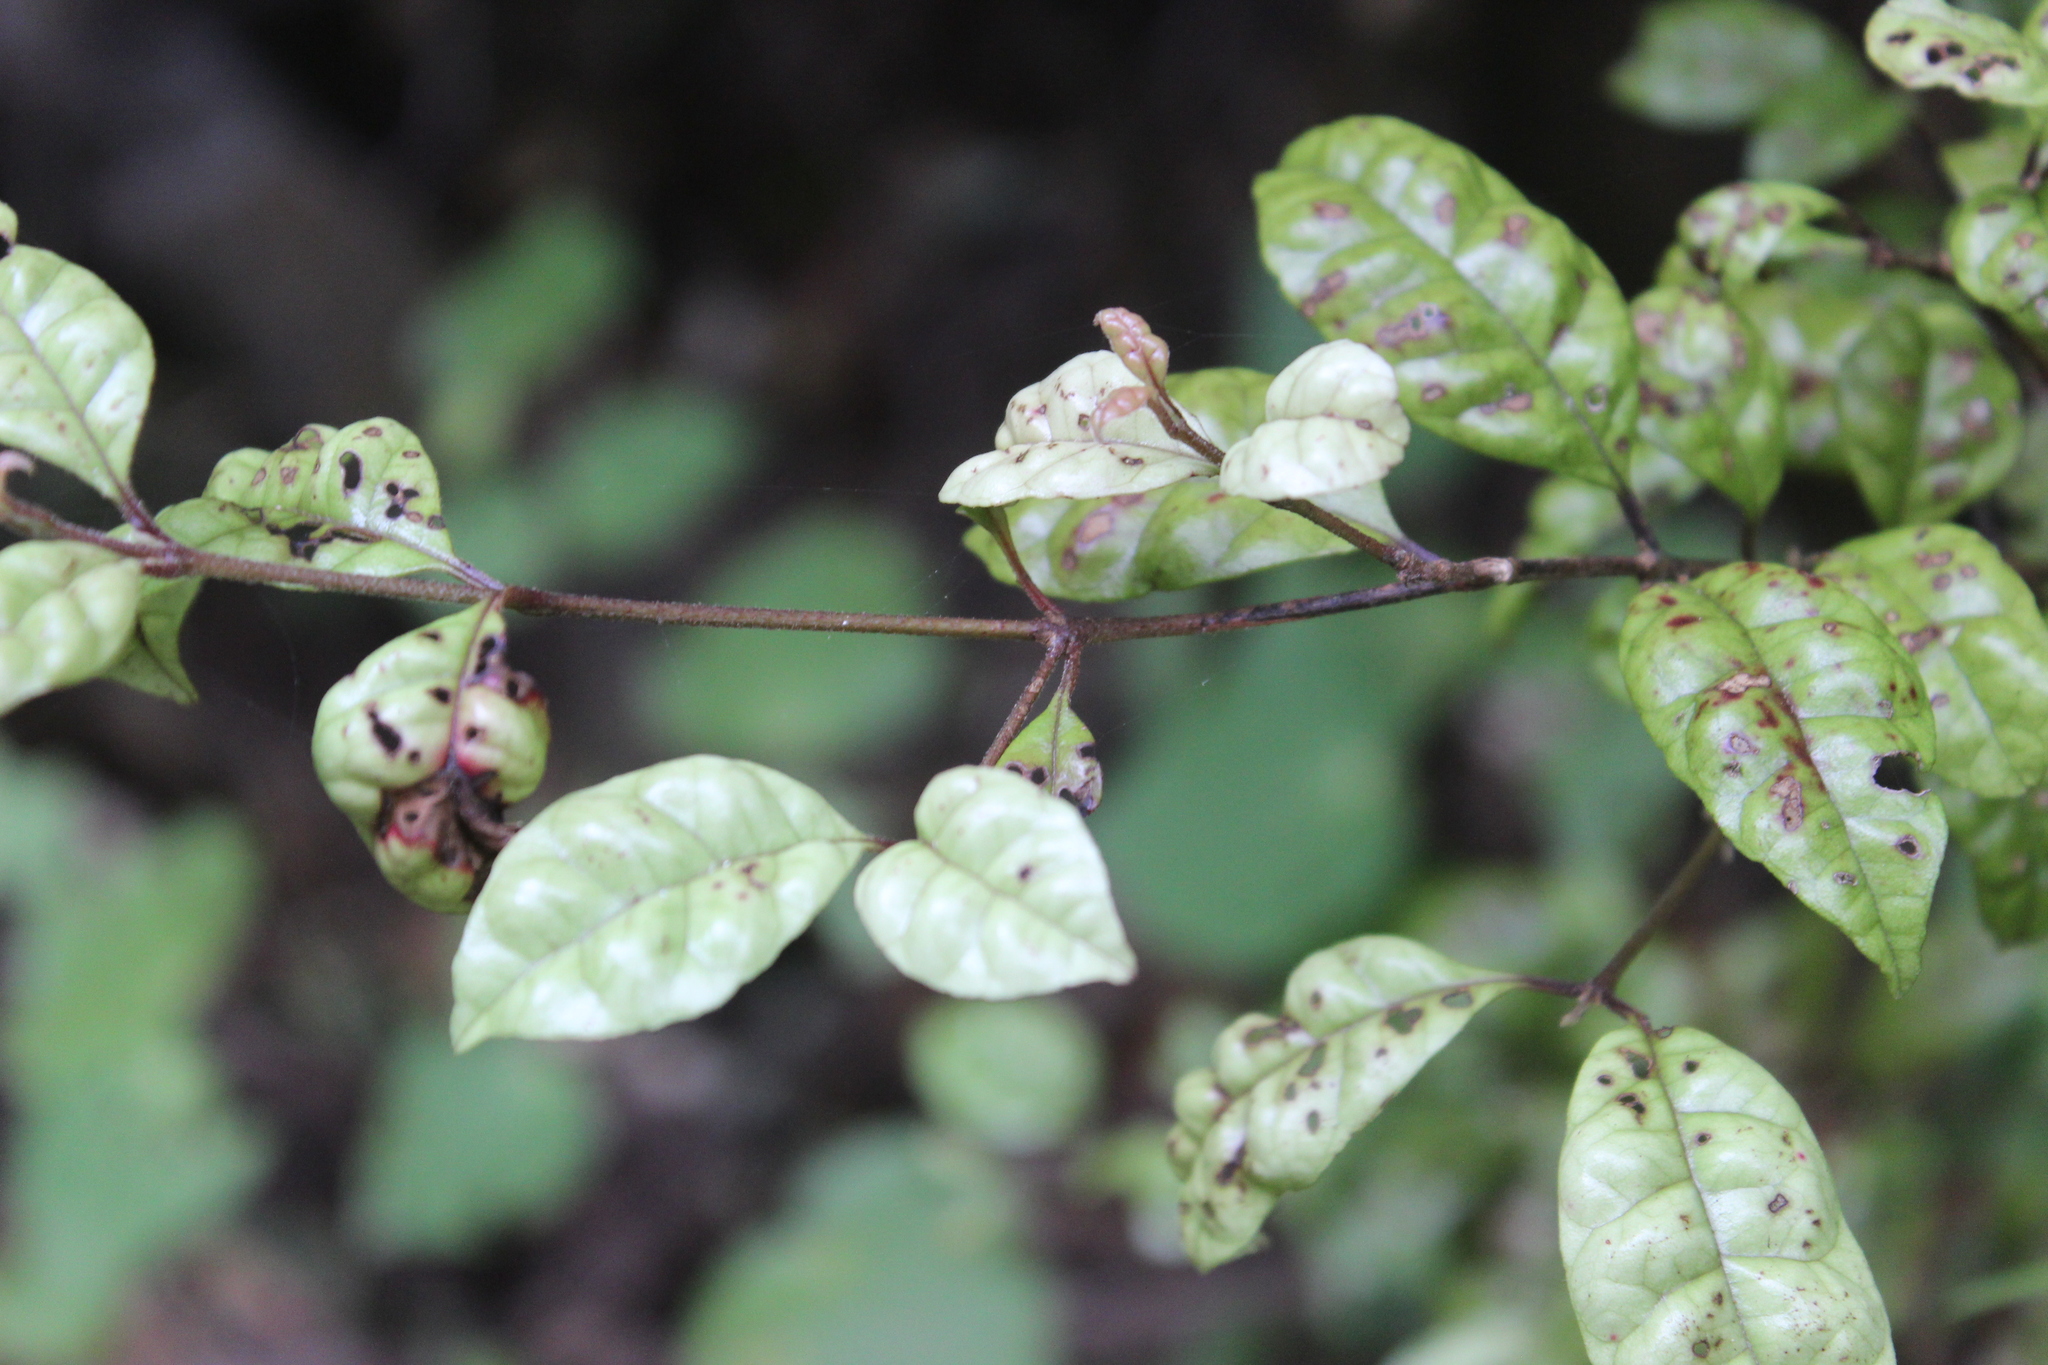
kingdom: Plantae
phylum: Tracheophyta
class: Magnoliopsida
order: Myrtales
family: Myrtaceae
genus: Lophomyrtus
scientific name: Lophomyrtus bullata
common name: Rama rama
